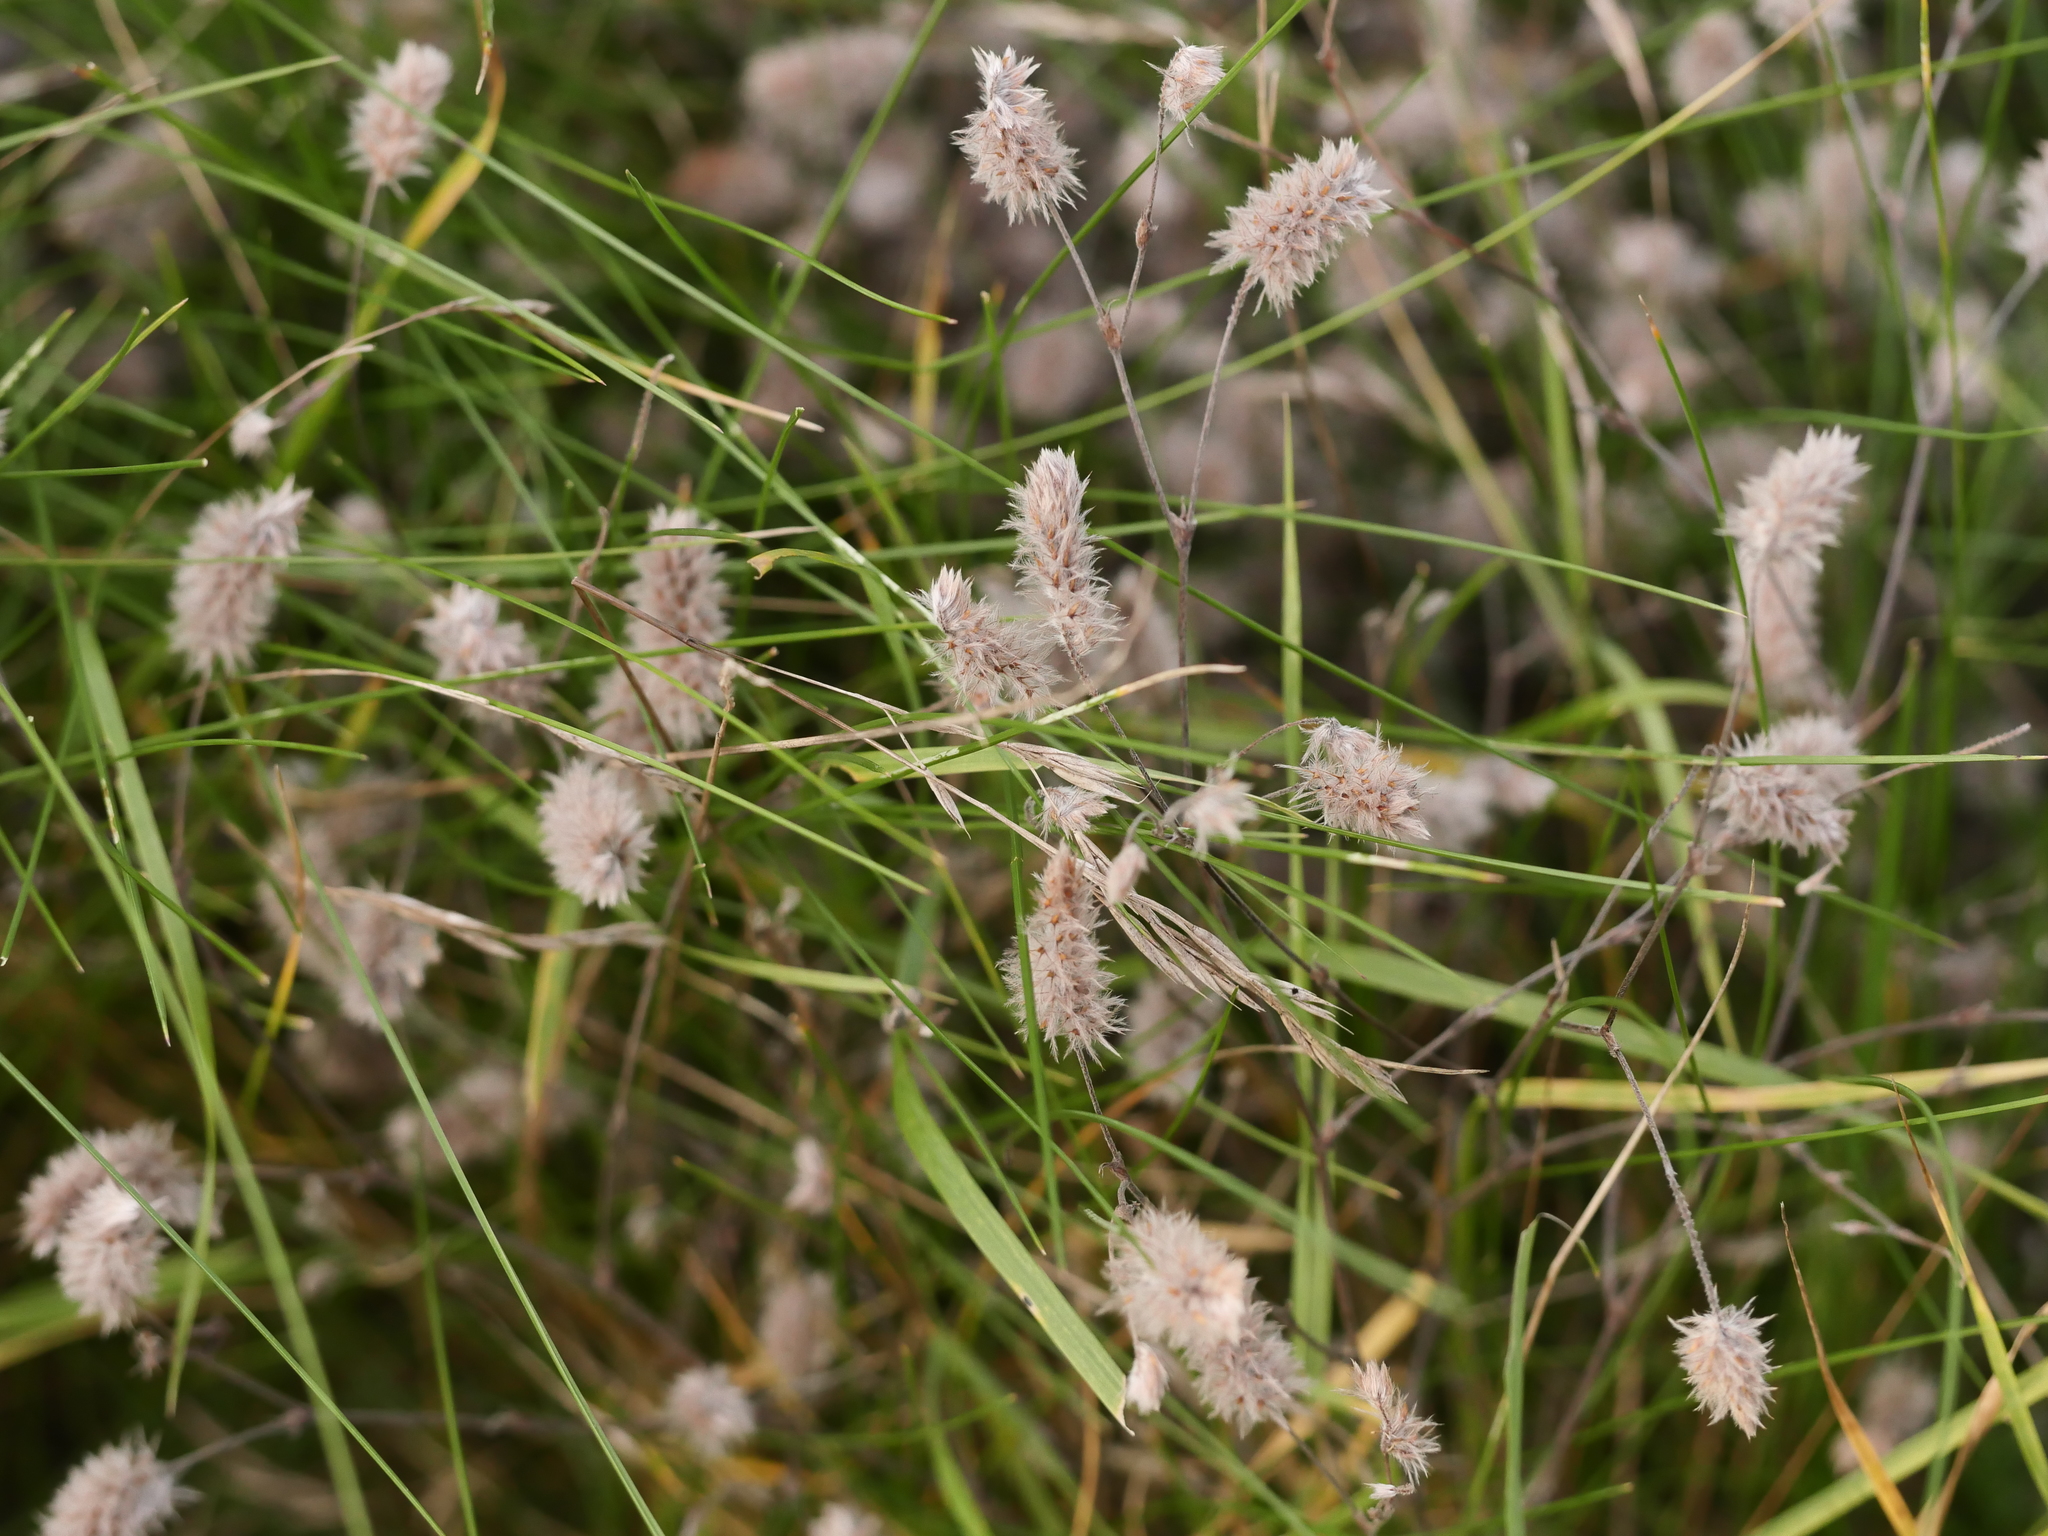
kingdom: Plantae
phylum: Tracheophyta
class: Magnoliopsida
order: Fabales
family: Fabaceae
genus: Trifolium
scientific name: Trifolium arvense
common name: Hare's-foot clover
